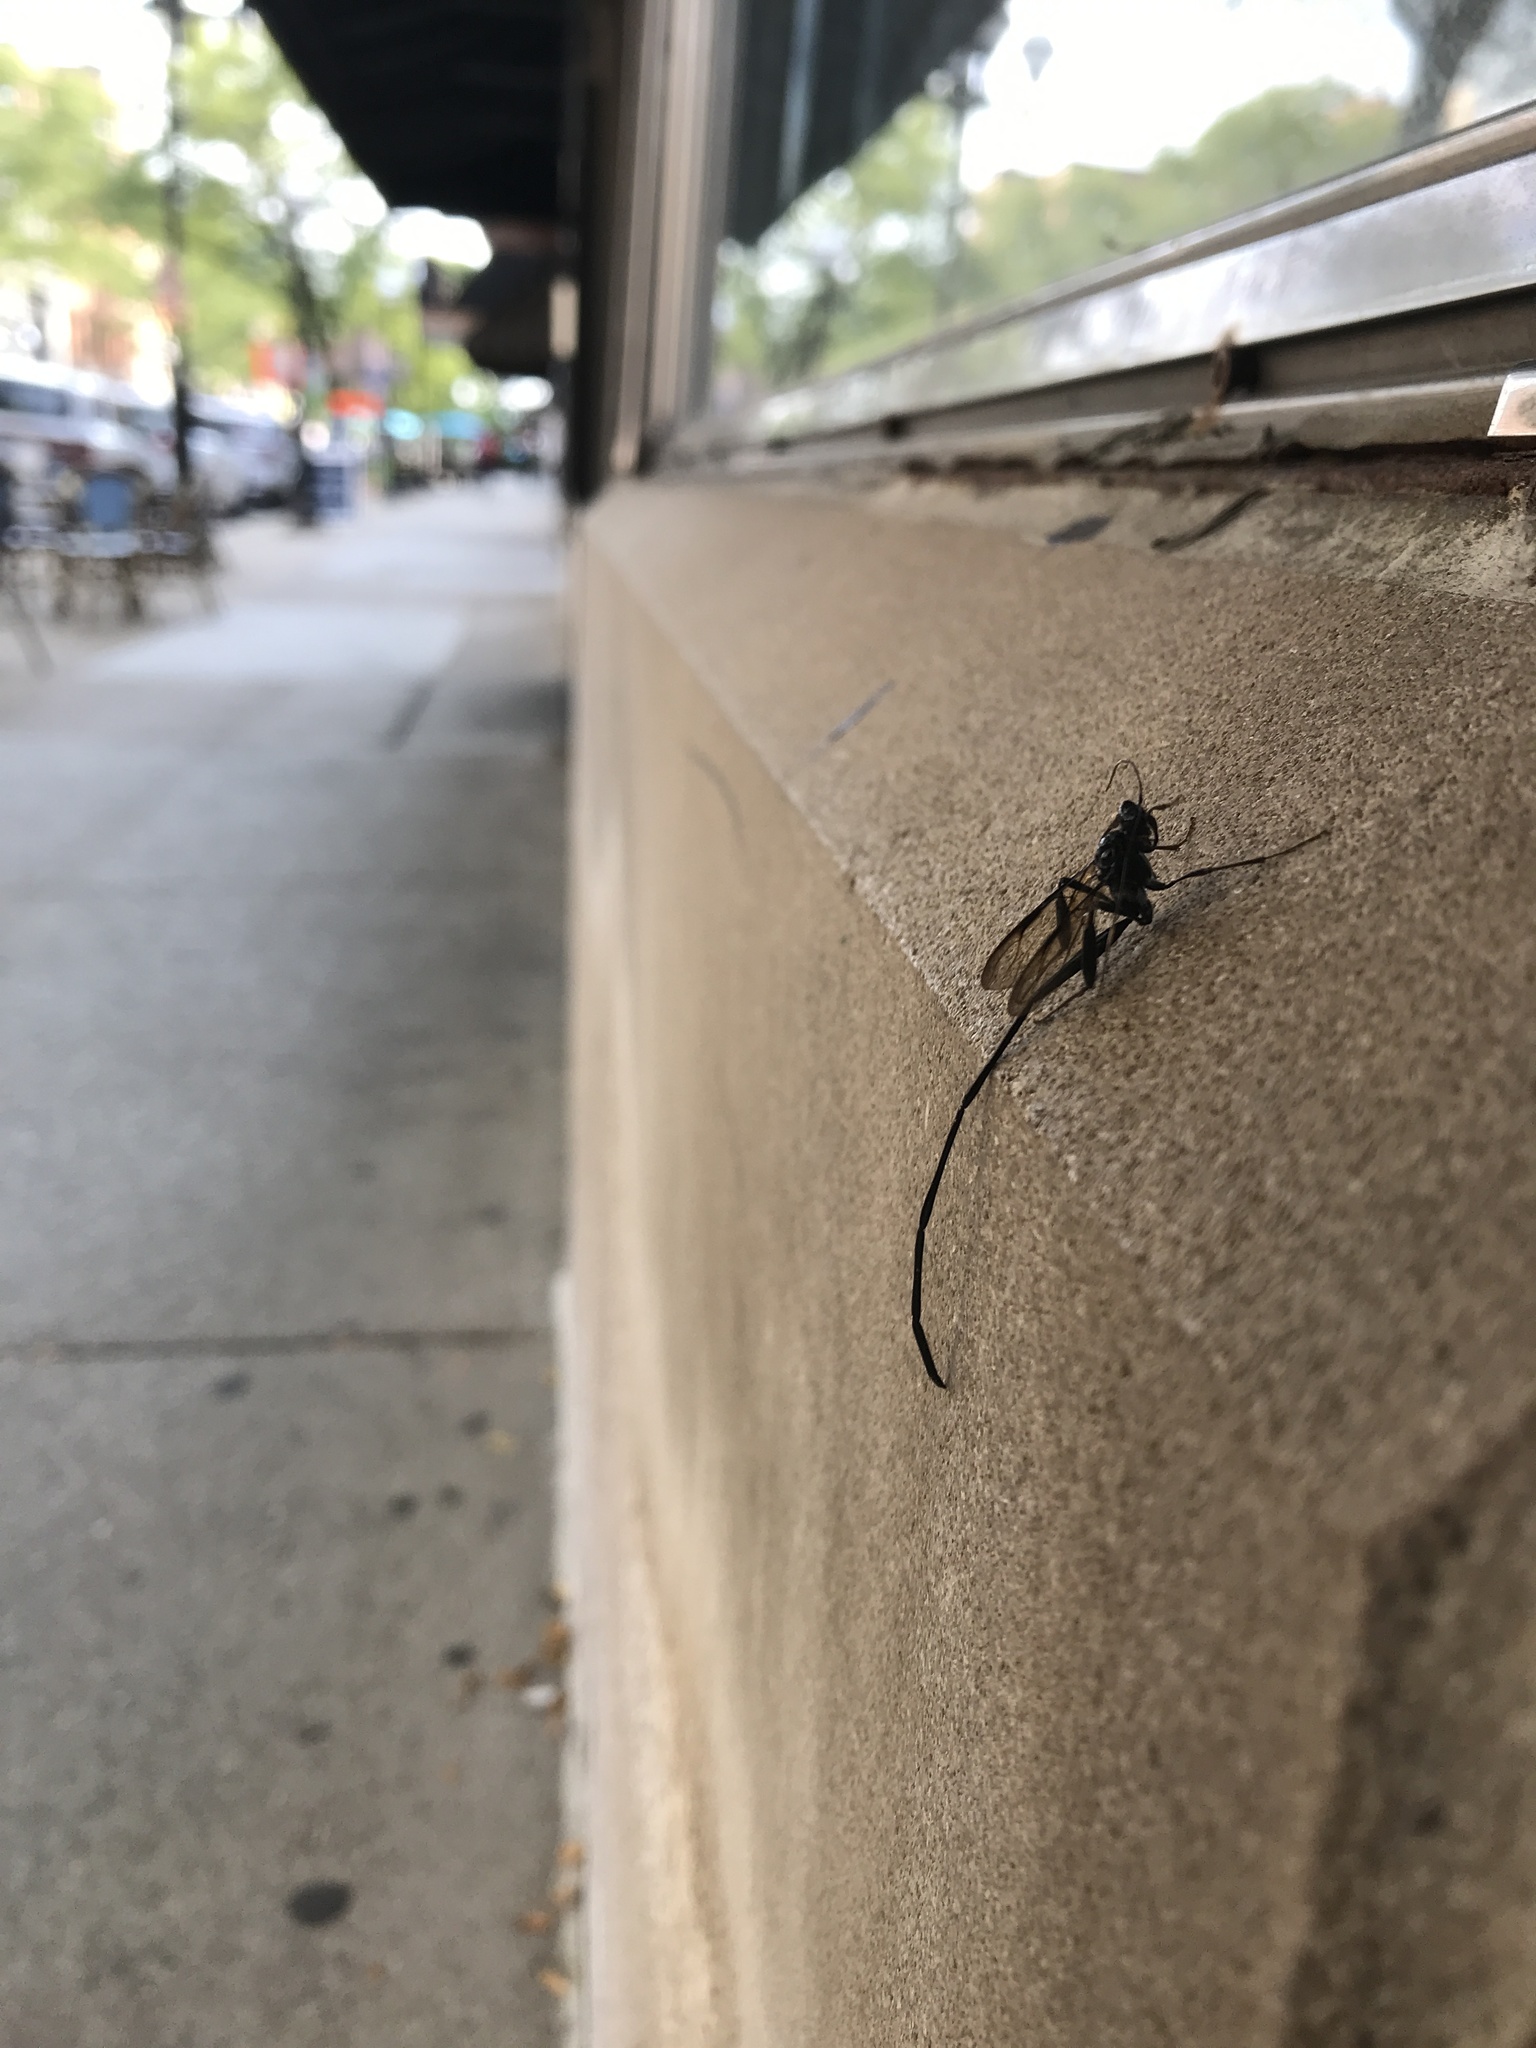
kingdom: Animalia
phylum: Arthropoda
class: Insecta
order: Hymenoptera
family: Pelecinidae
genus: Pelecinus
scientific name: Pelecinus polyturator
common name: American pelecinid wasp
